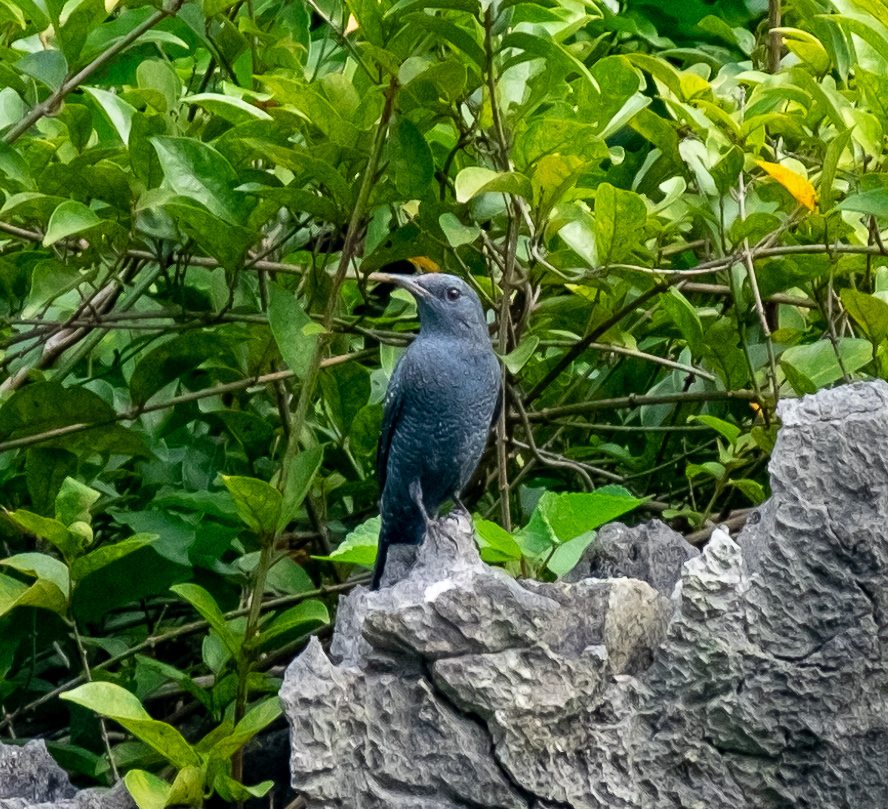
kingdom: Animalia
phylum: Chordata
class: Aves
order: Passeriformes
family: Muscicapidae
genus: Monticola
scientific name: Monticola solitarius
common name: Blue rock thrush
